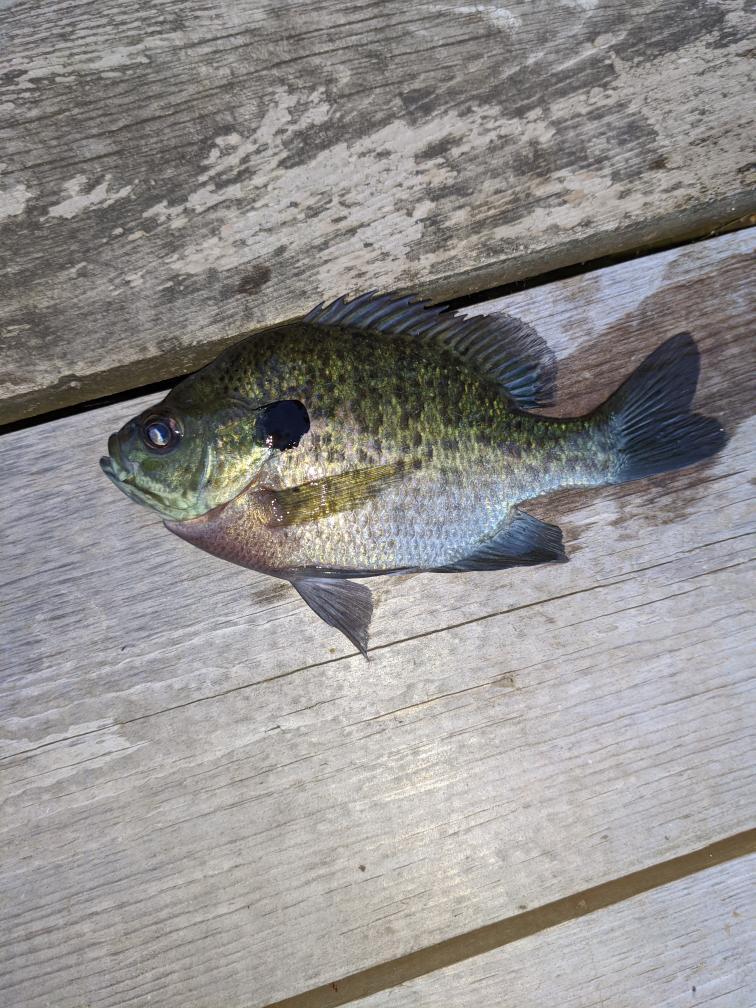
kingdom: Animalia
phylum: Chordata
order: Perciformes
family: Centrarchidae
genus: Lepomis
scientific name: Lepomis macrochirus
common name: Bluegill
